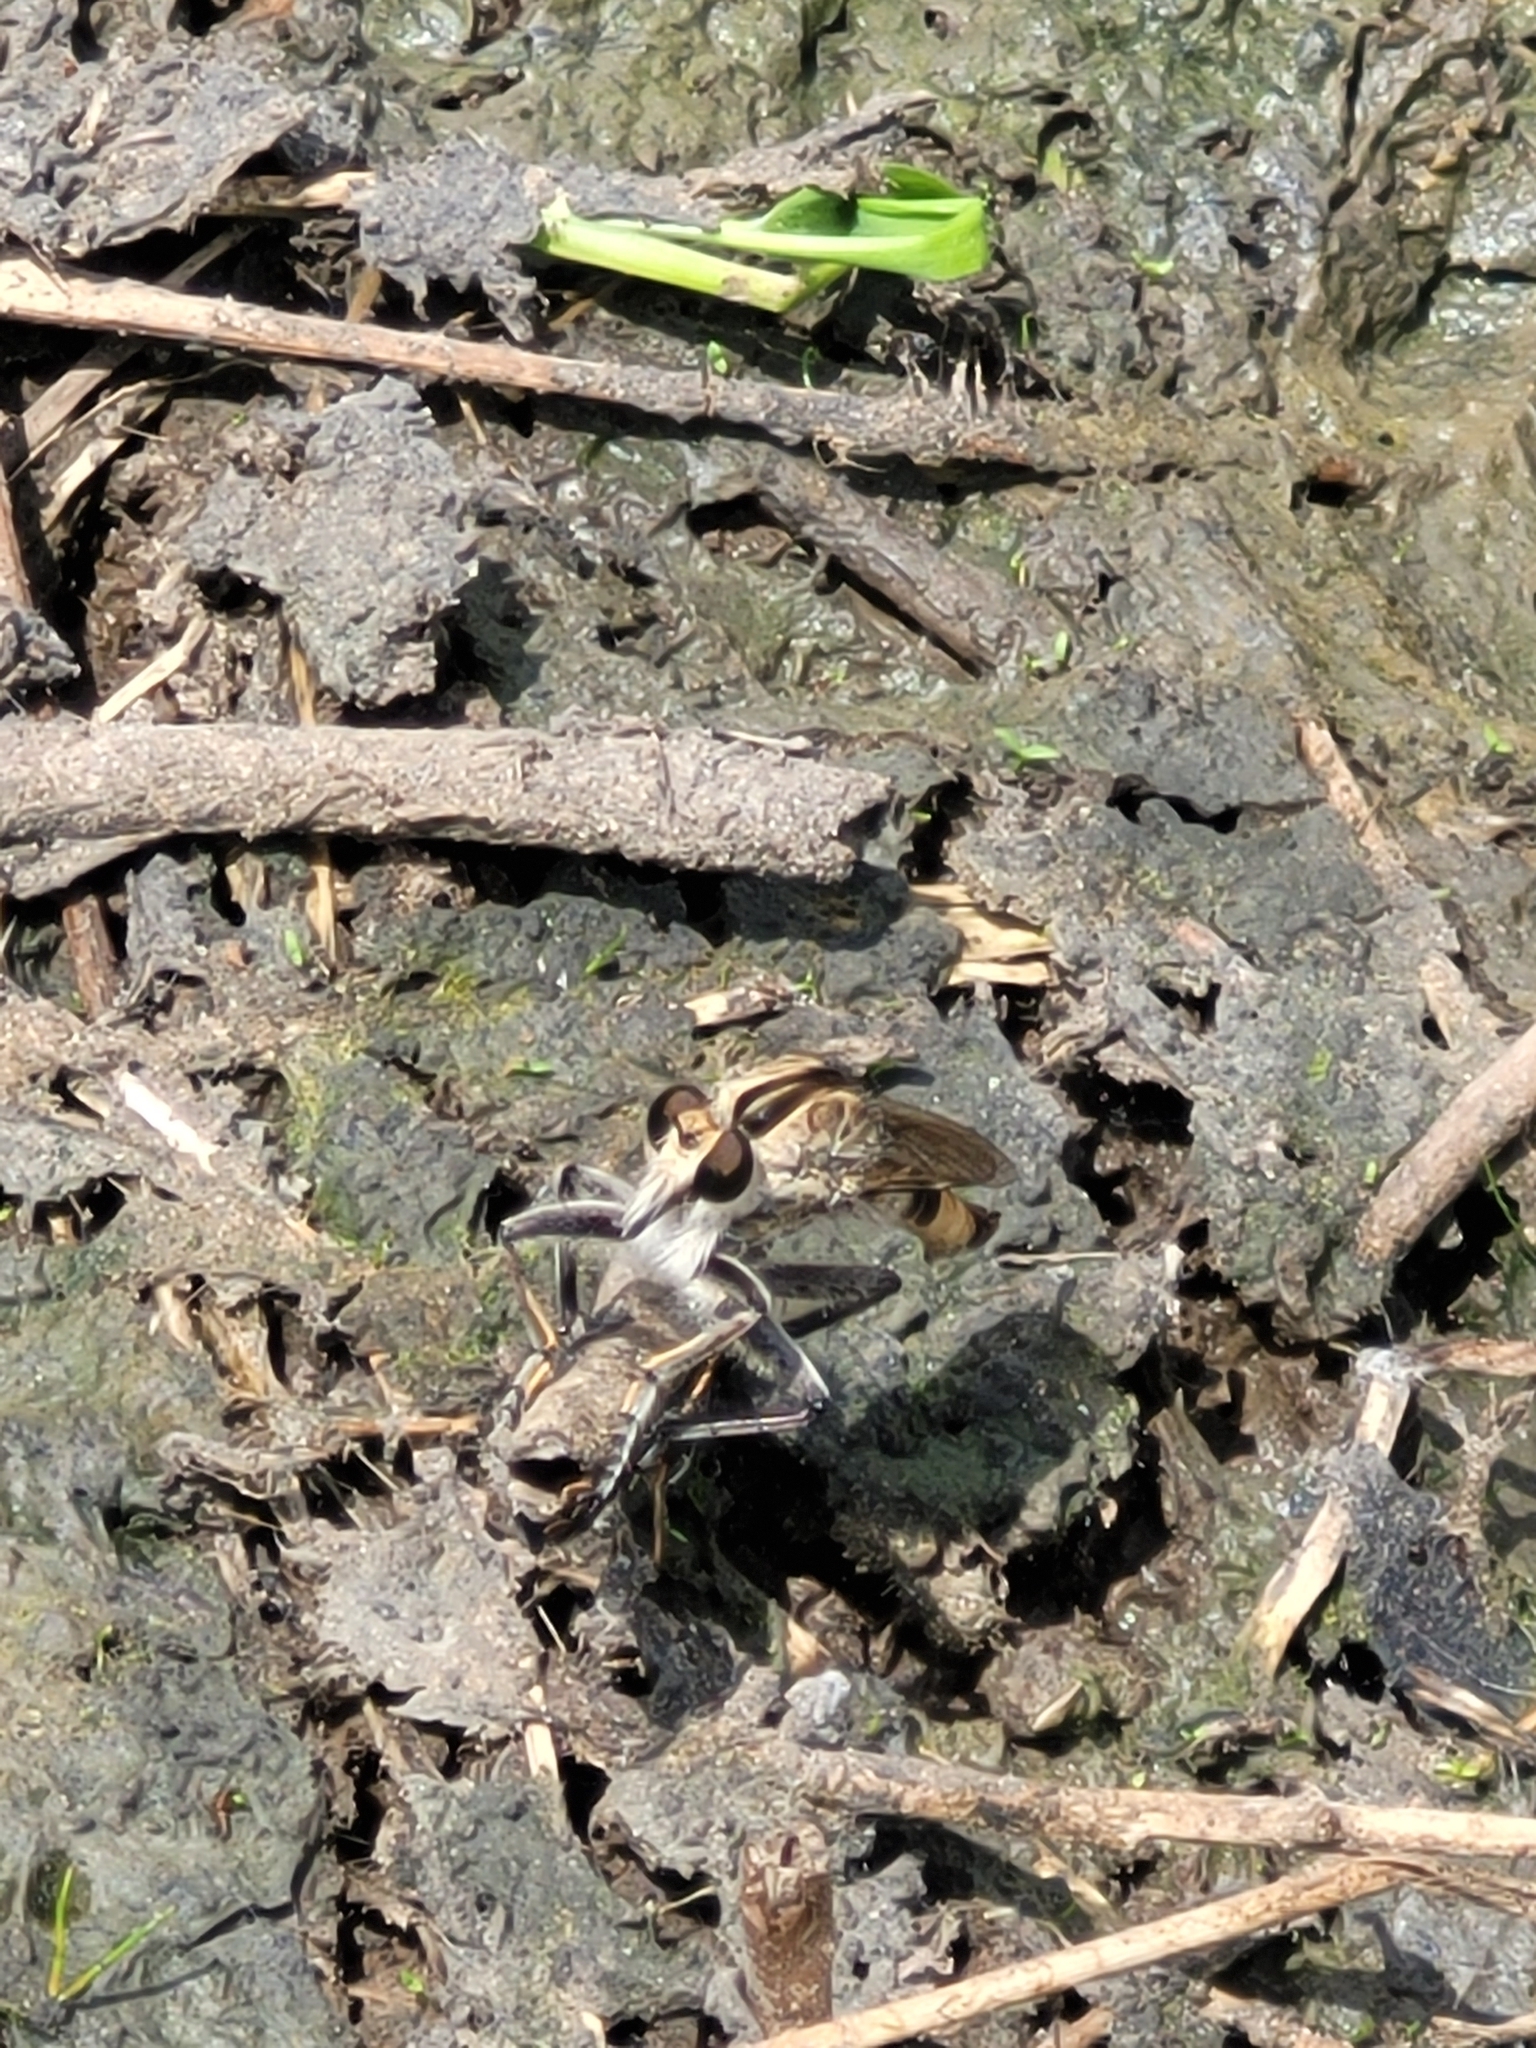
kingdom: Animalia
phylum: Arthropoda
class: Insecta
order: Diptera
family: Asilidae
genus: Triorla
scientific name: Triorla interrupta
